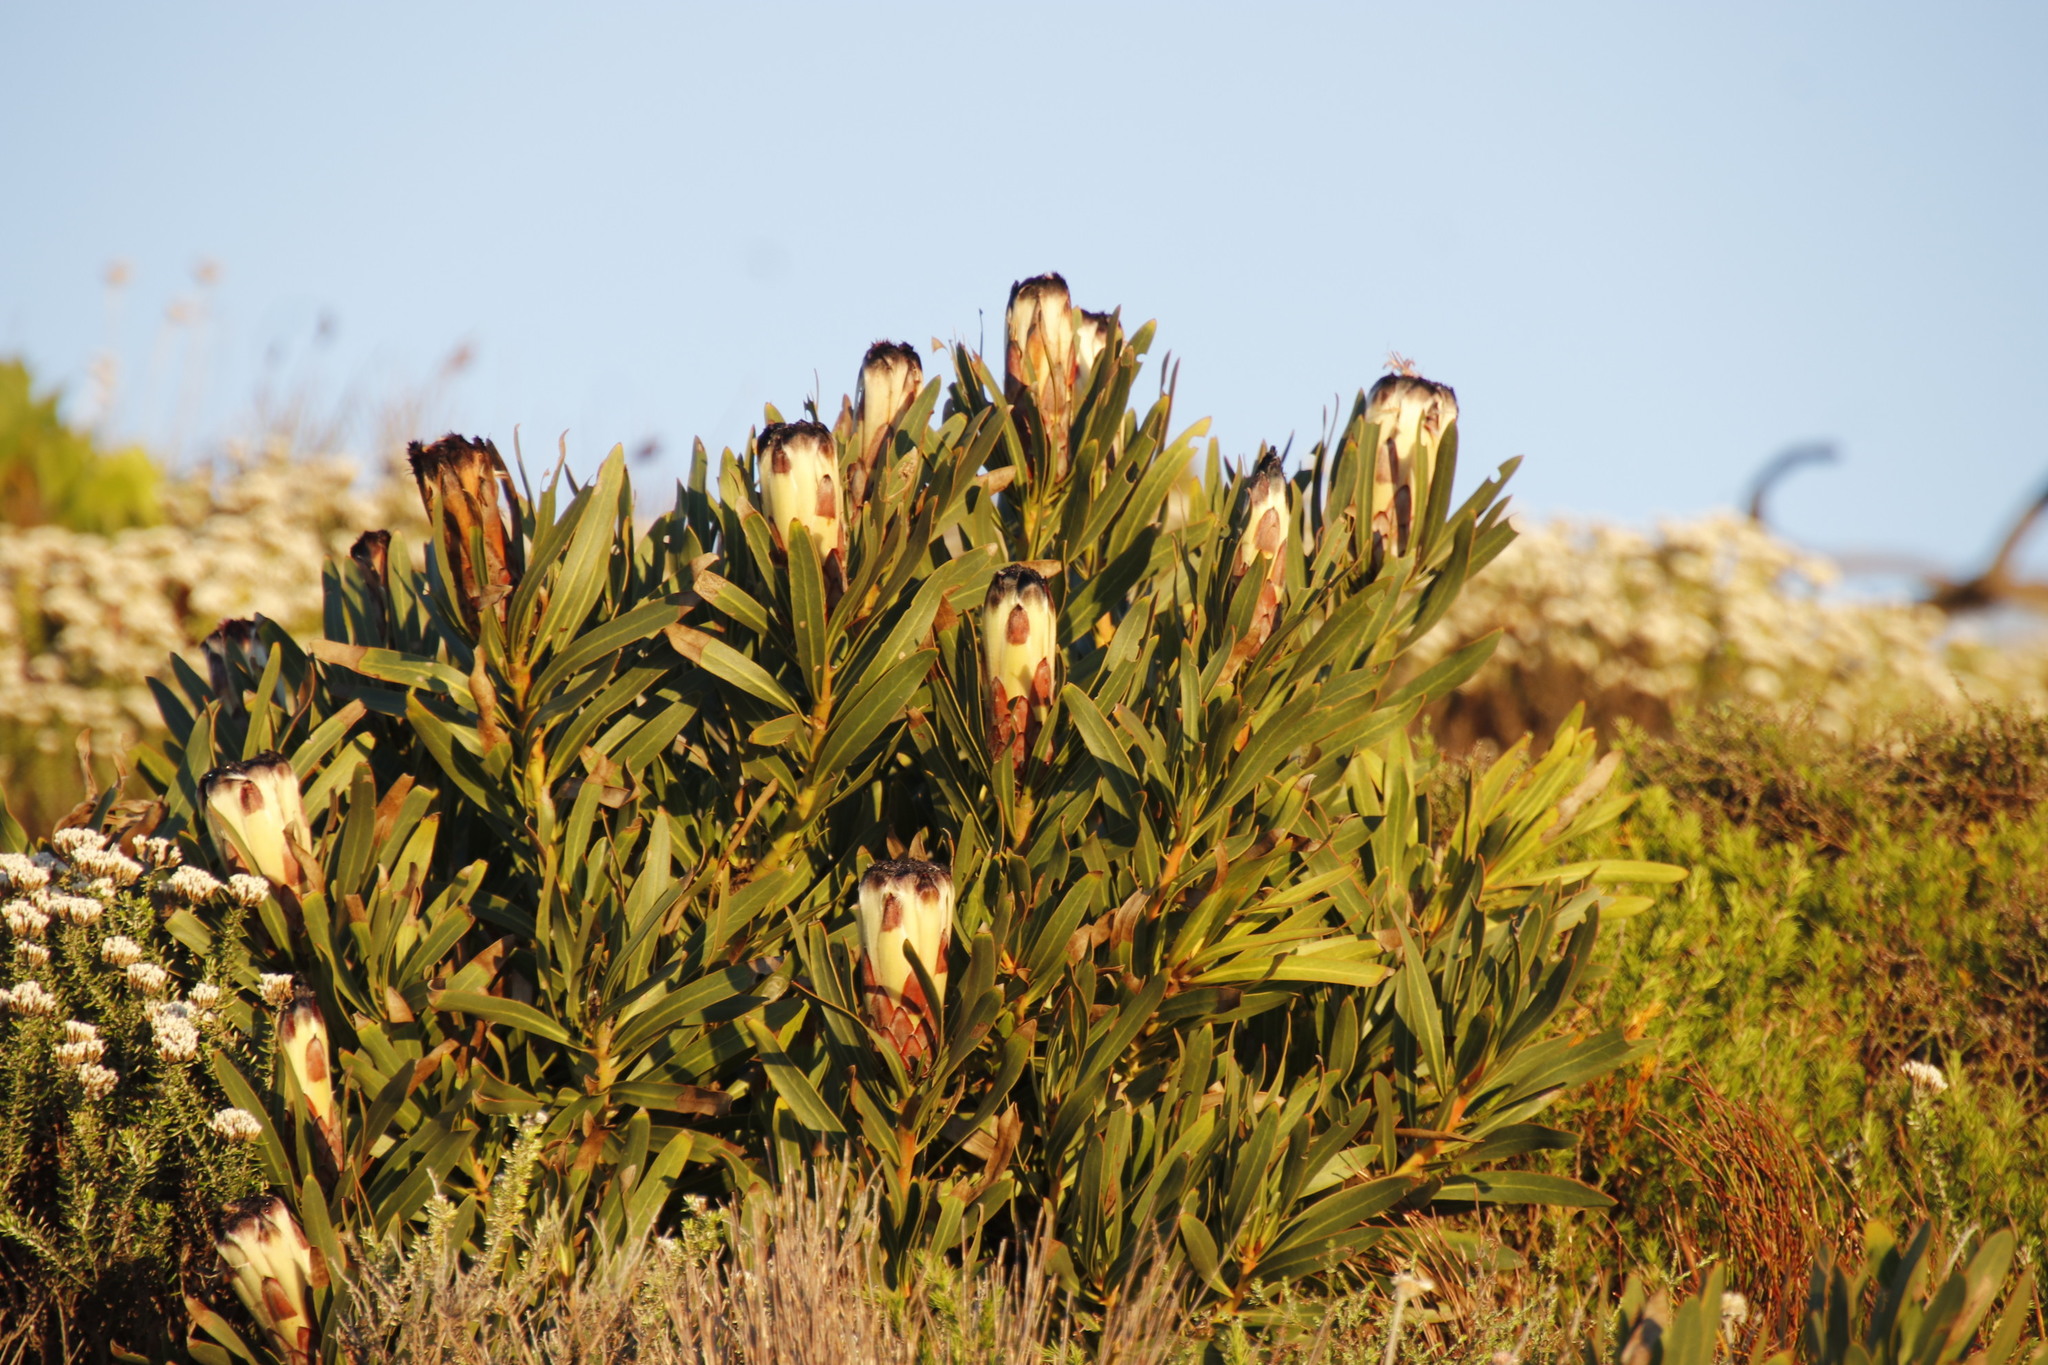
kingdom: Plantae
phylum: Tracheophyta
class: Magnoliopsida
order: Proteales
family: Proteaceae
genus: Protea
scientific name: Protea lepidocarpodendron
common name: Black-bearded protea
